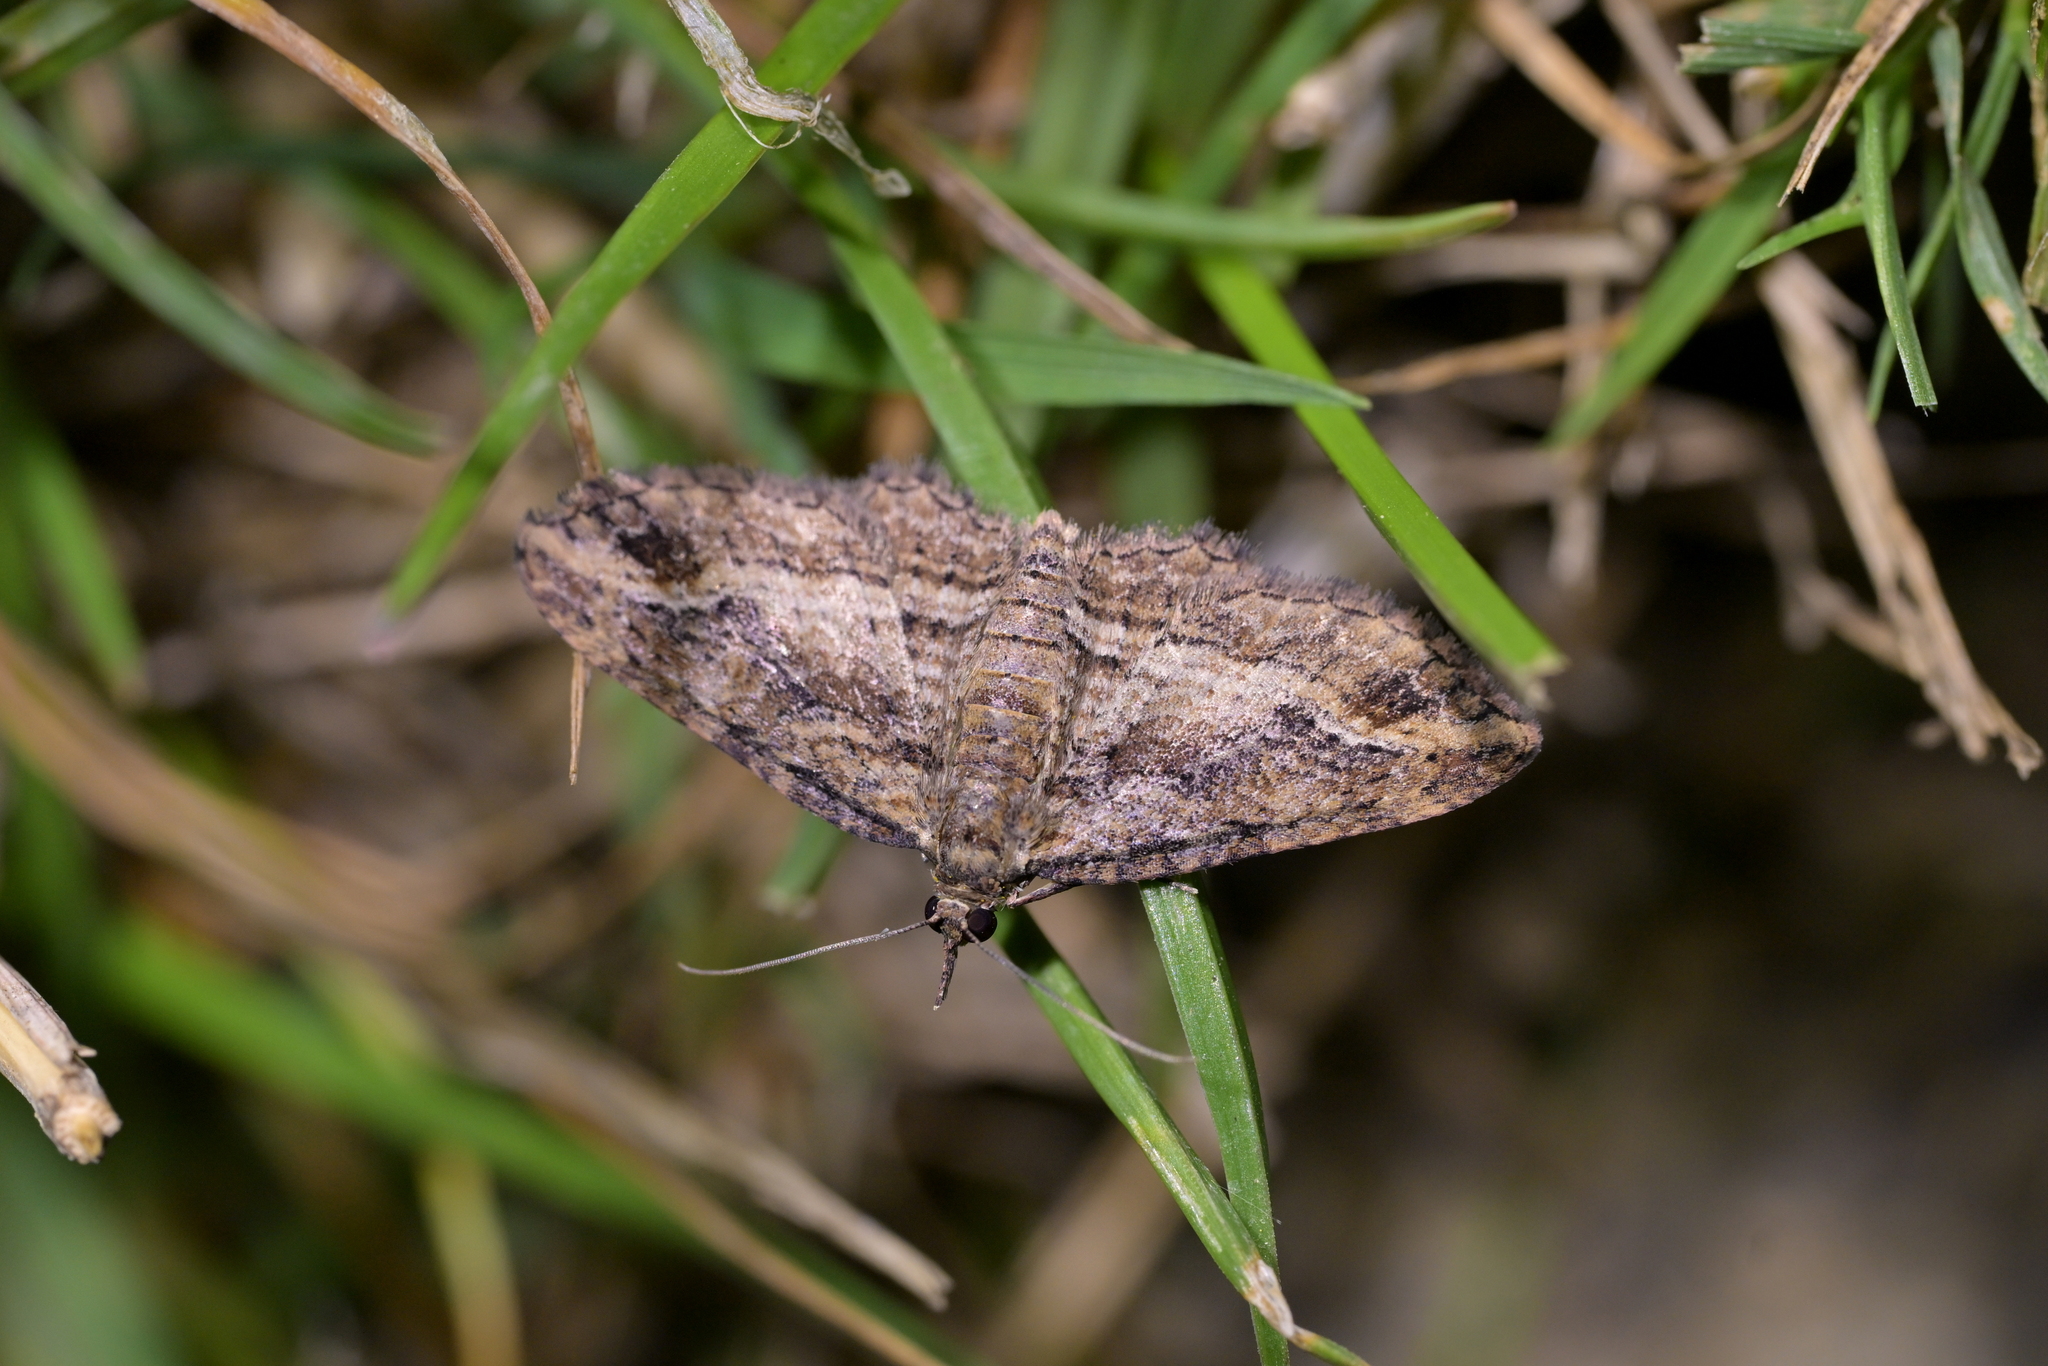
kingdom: Animalia
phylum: Arthropoda
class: Insecta
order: Lepidoptera
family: Geometridae
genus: Chloroclystis
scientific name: Chloroclystis filata
